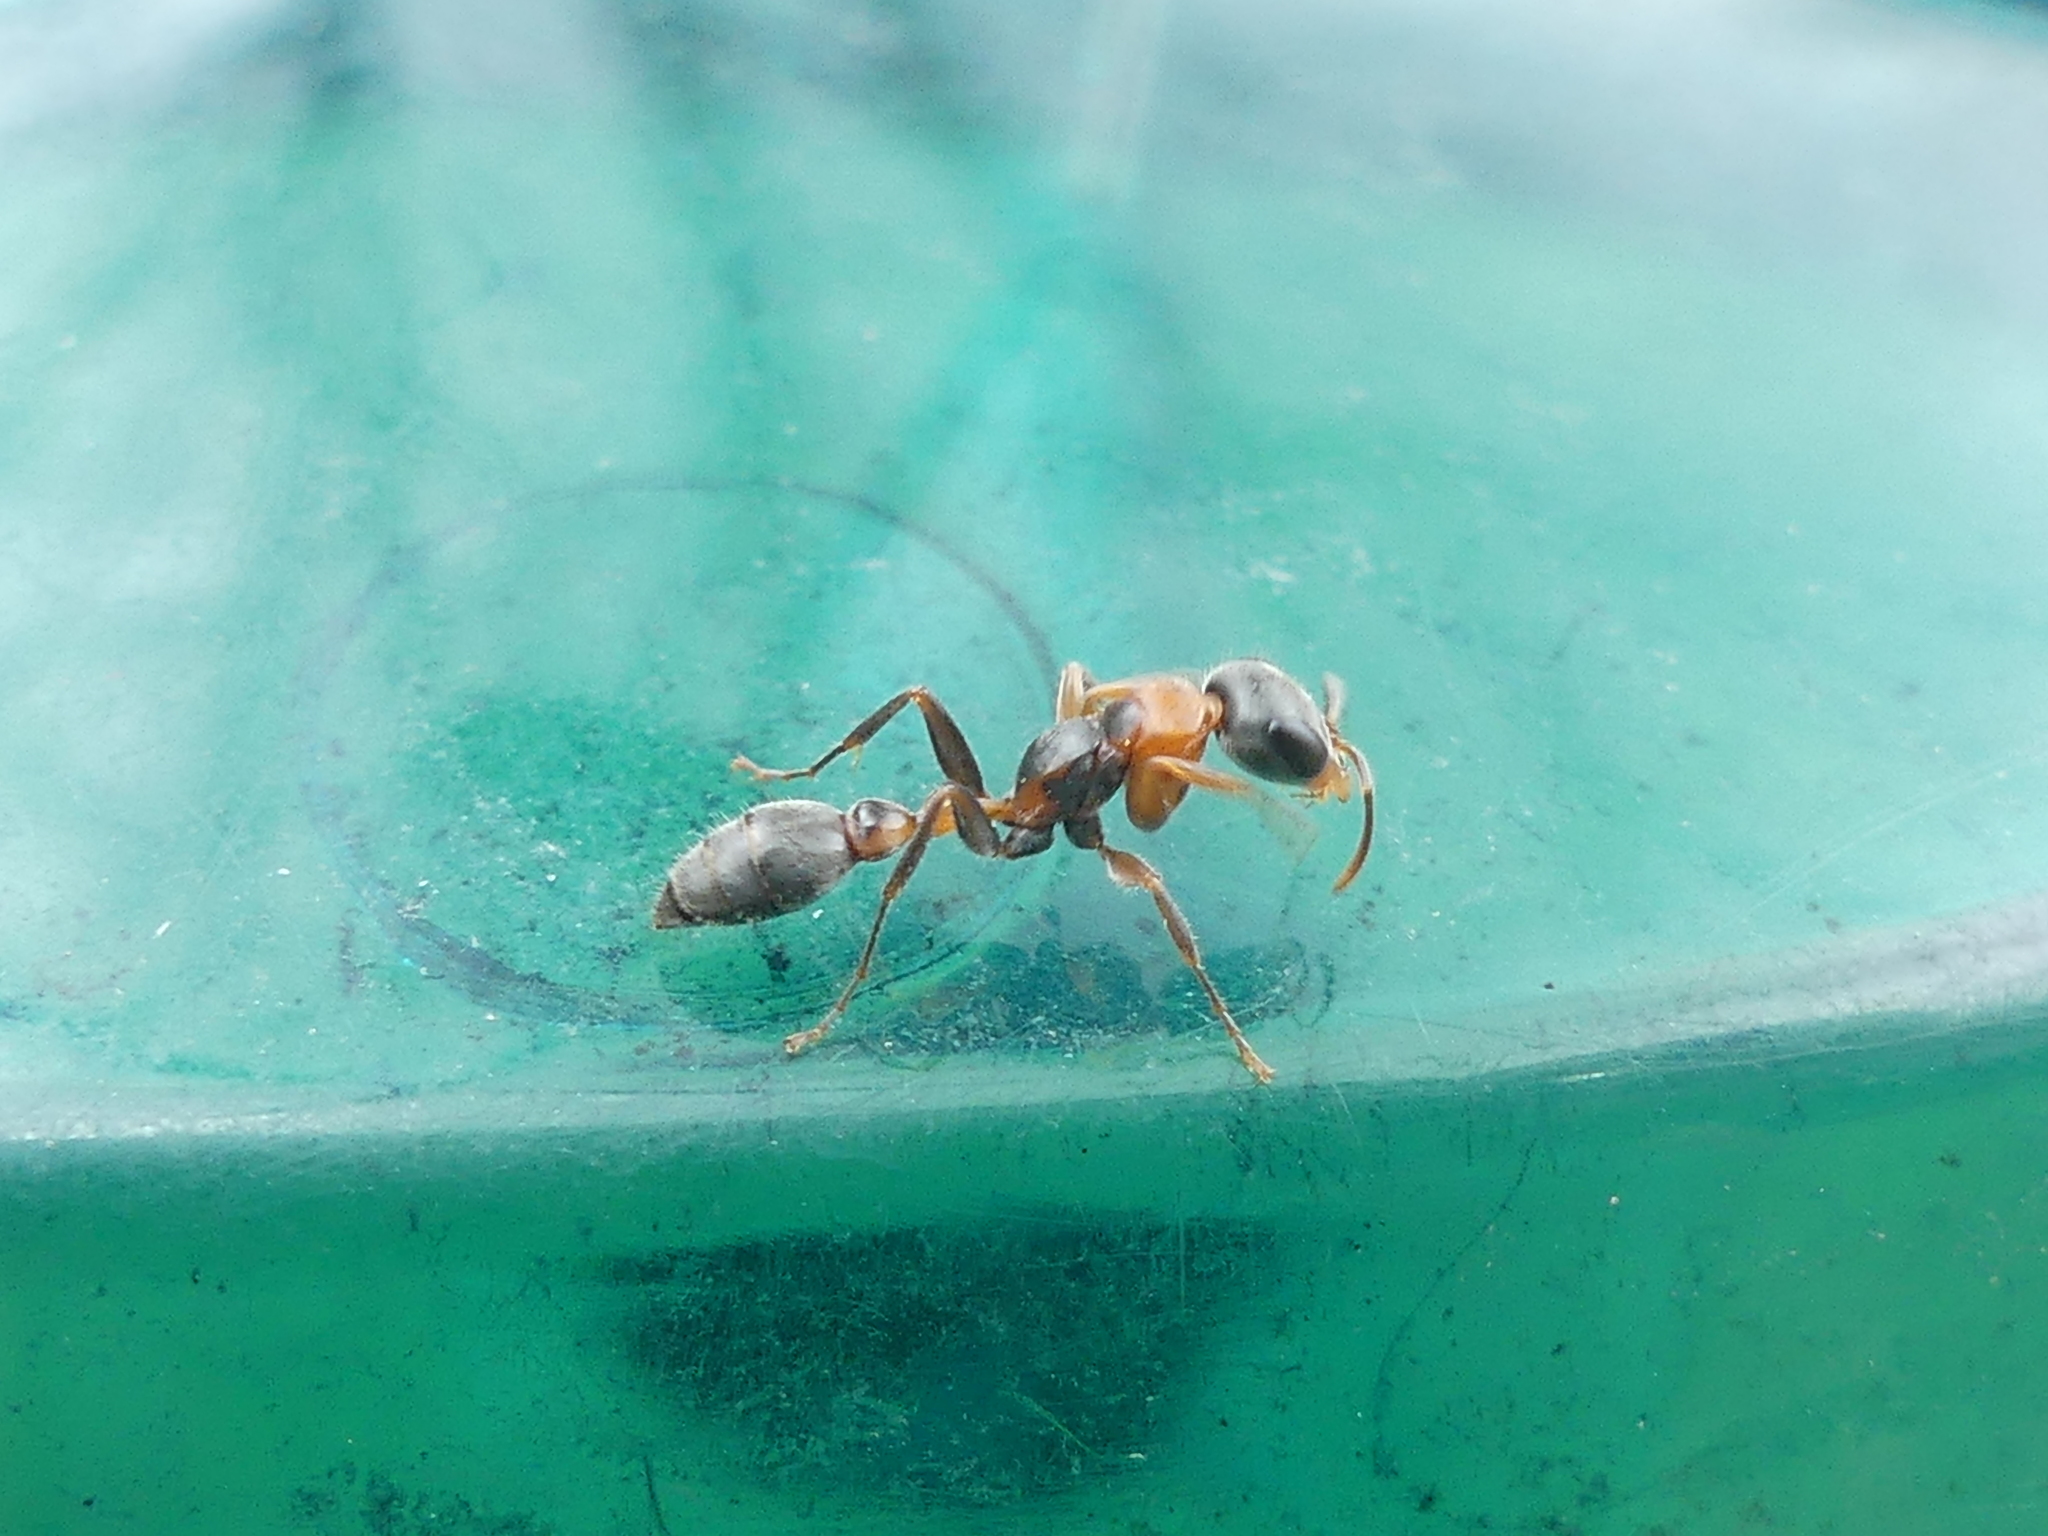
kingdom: Animalia
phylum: Arthropoda
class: Insecta
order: Hymenoptera
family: Formicidae
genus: Pseudomyrmex
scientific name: Pseudomyrmex gracilis
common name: Graceful twig ant
